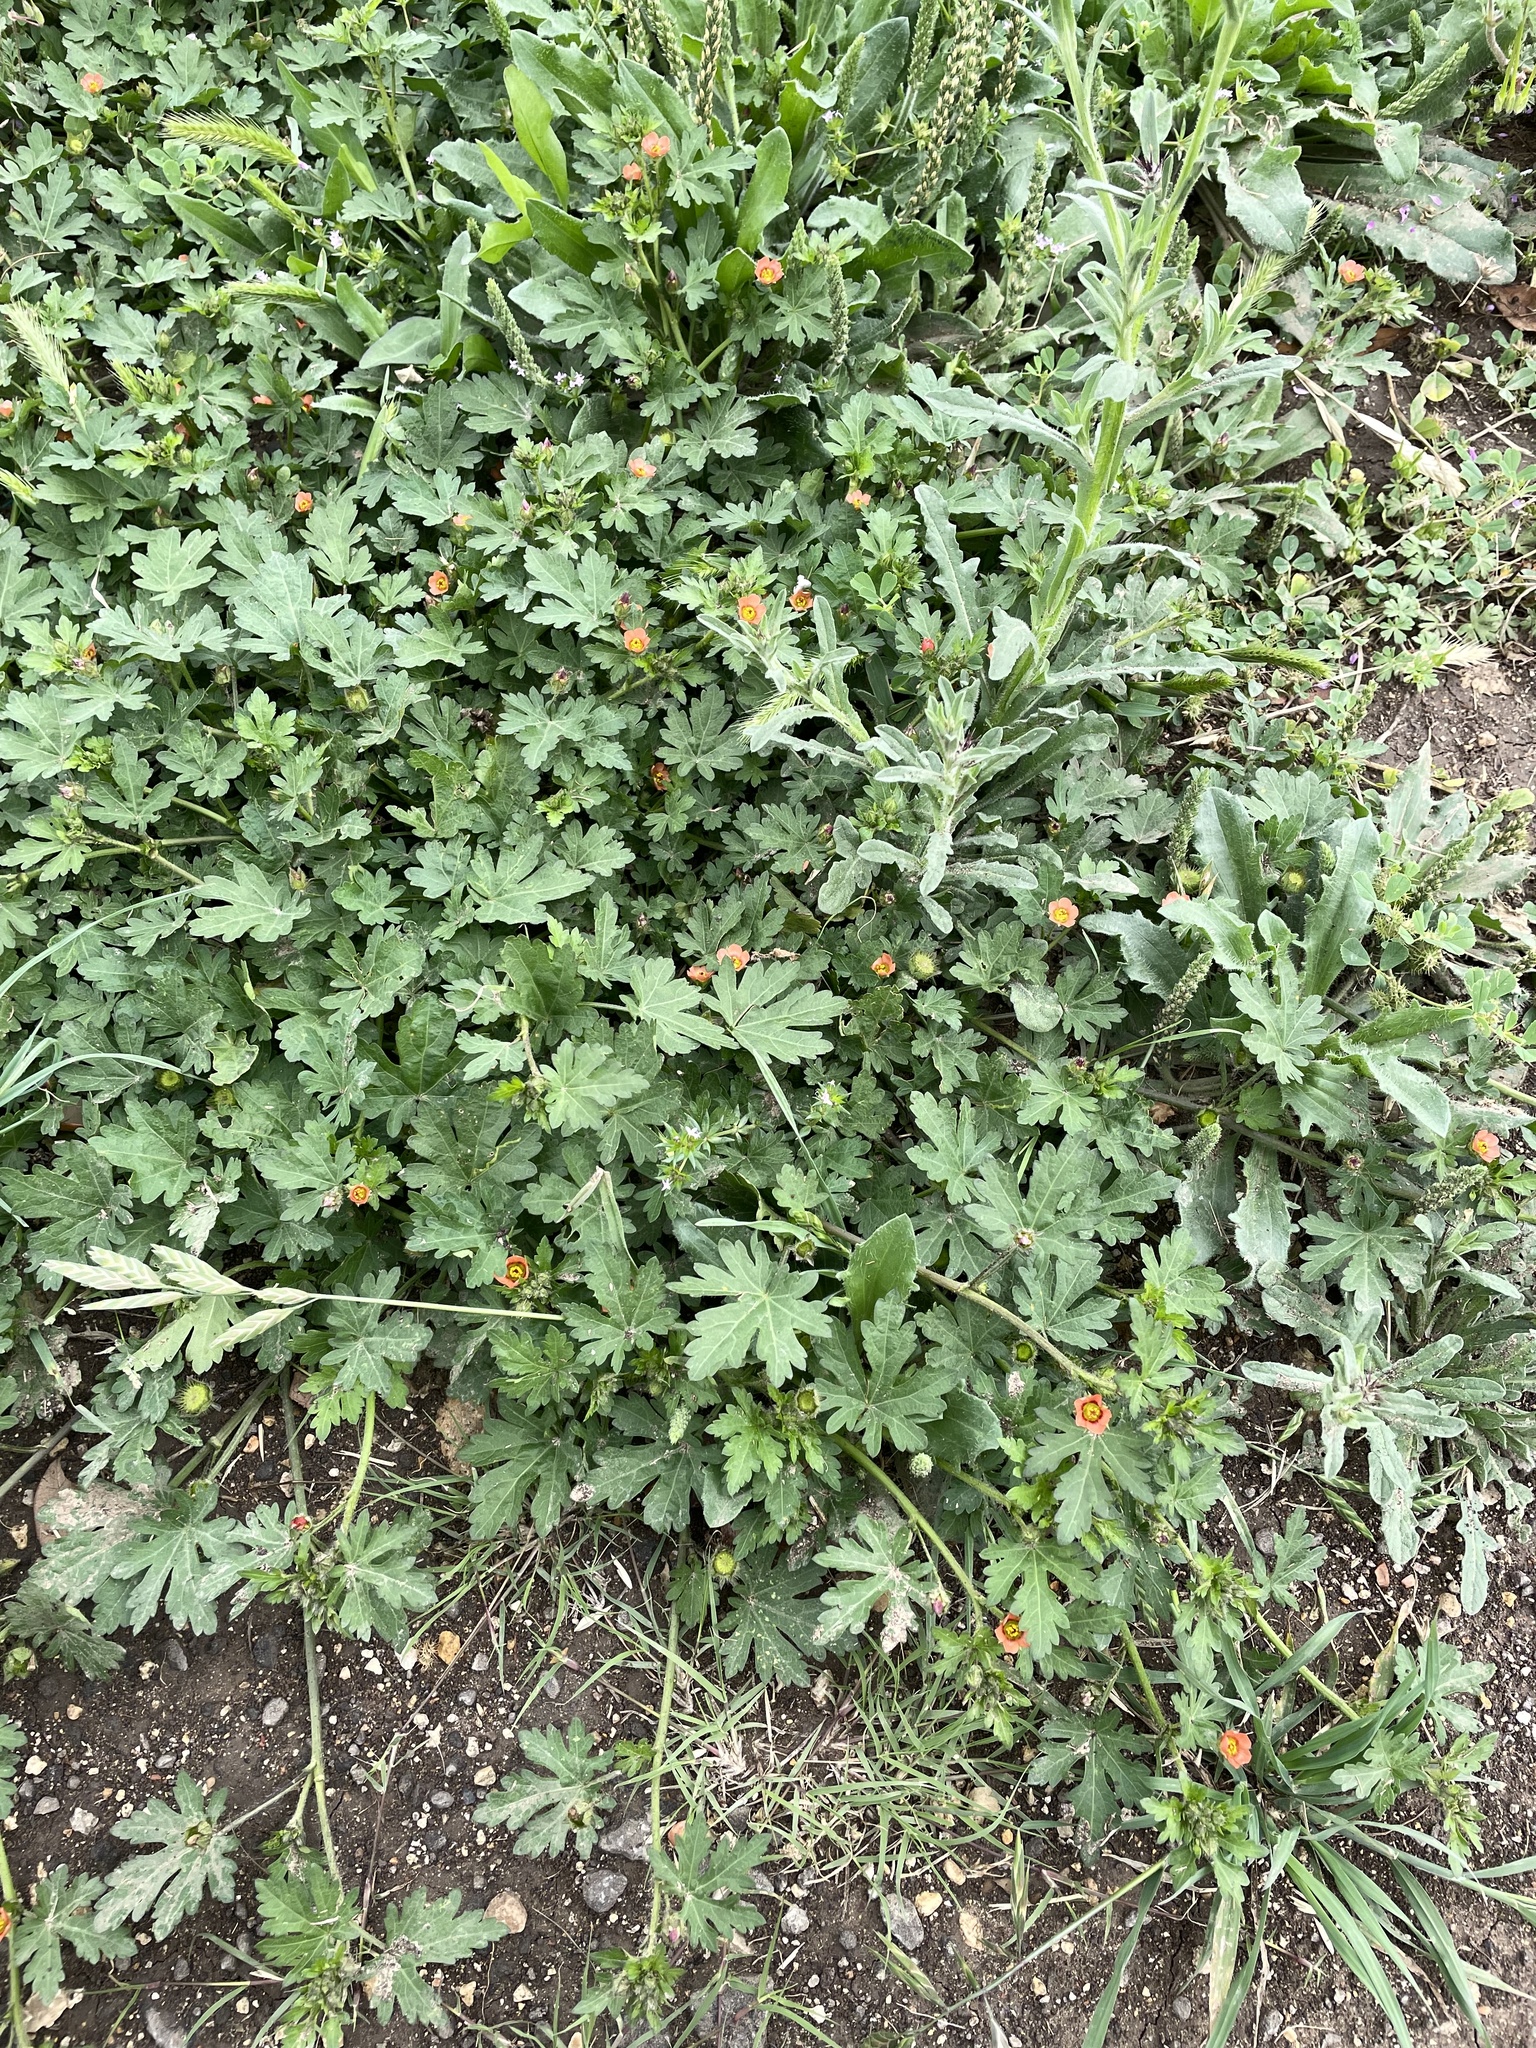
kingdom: Plantae
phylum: Tracheophyta
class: Magnoliopsida
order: Malvales
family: Malvaceae
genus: Modiola
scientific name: Modiola caroliniana
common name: Carolina bristlemallow
